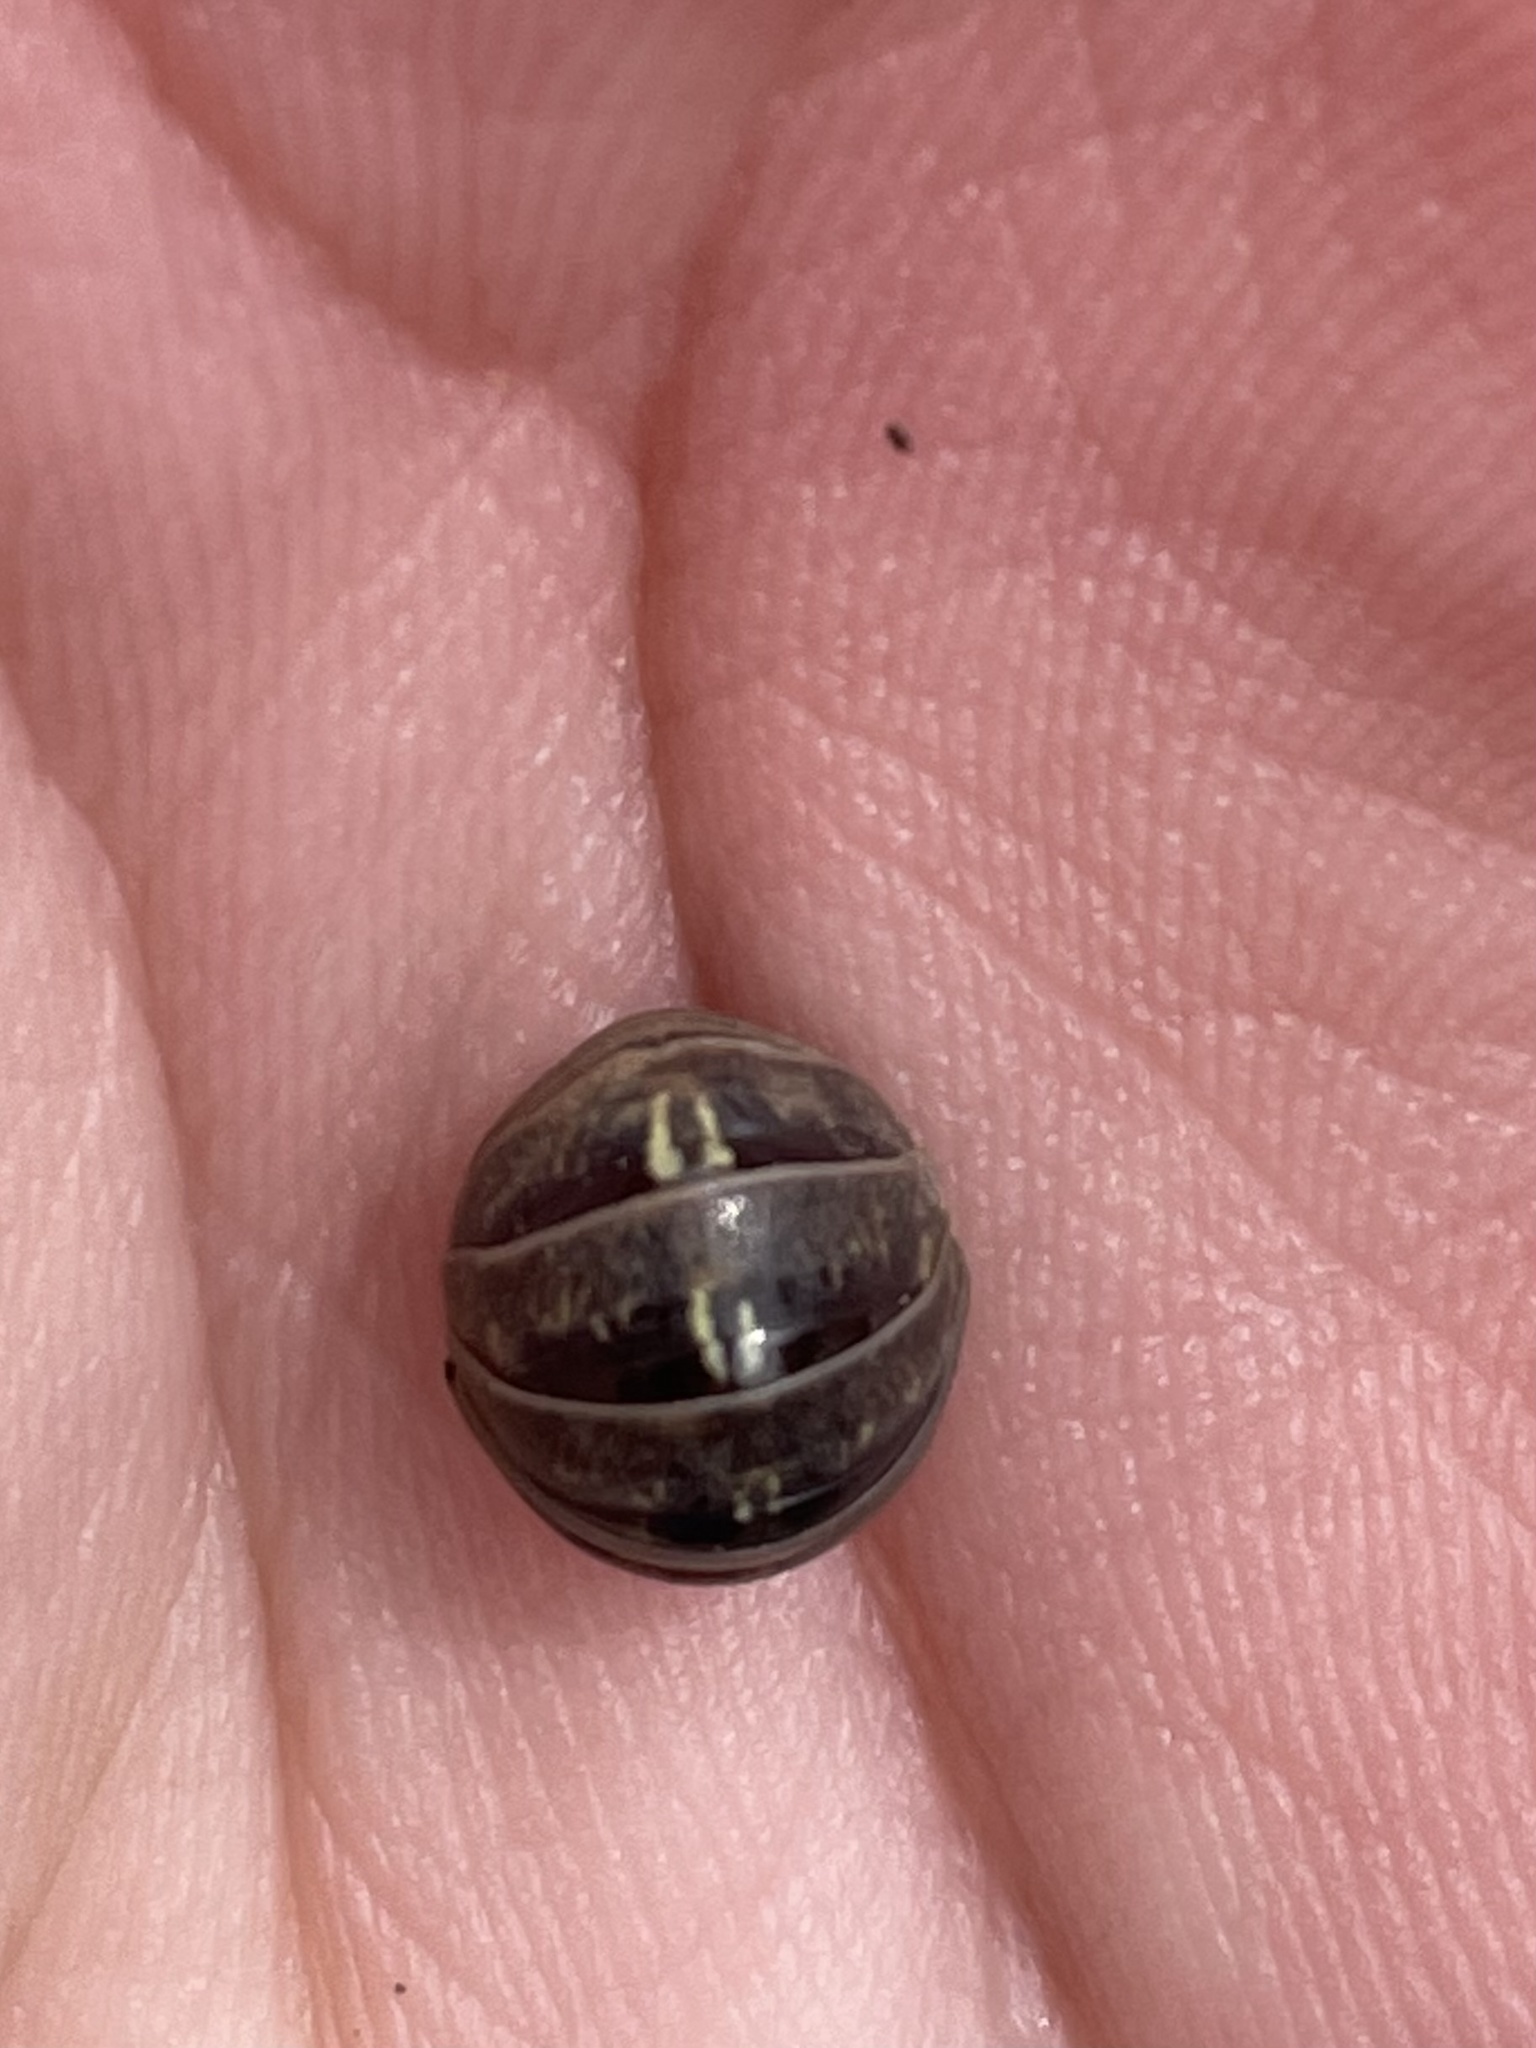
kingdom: Animalia
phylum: Arthropoda
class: Malacostraca
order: Isopoda
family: Armadillidiidae
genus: Armadillidium
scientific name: Armadillidium vulgare
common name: Common pill woodlouse
